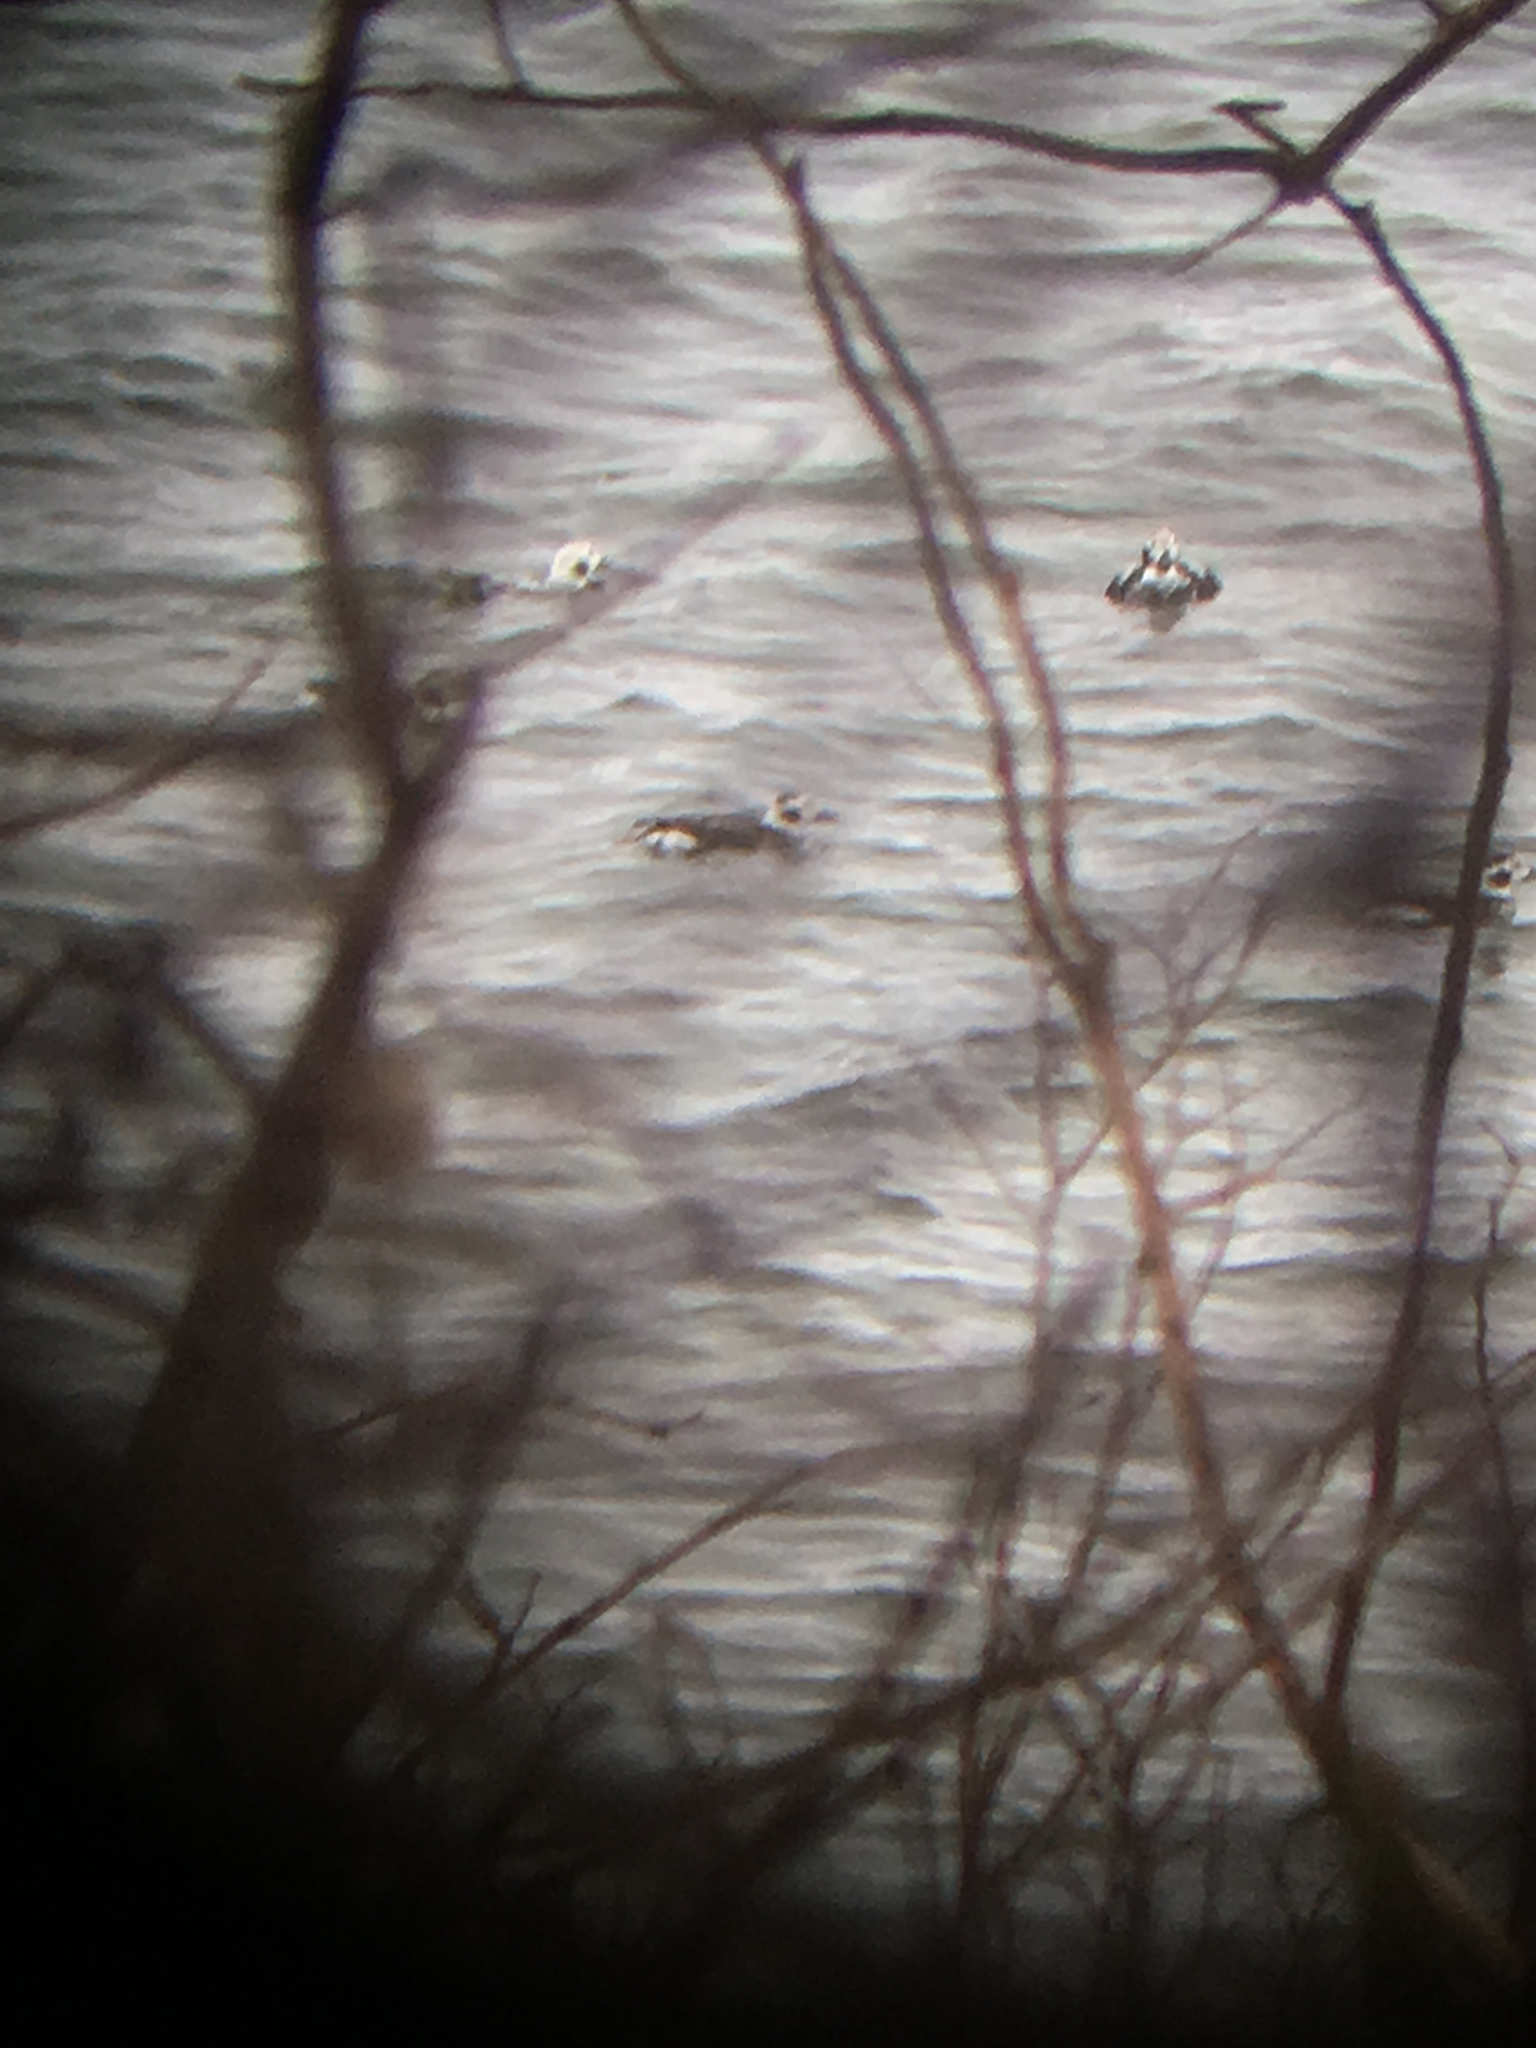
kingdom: Animalia
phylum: Chordata
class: Aves
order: Anseriformes
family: Anatidae
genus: Clangula
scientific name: Clangula hyemalis
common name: Long-tailed duck
